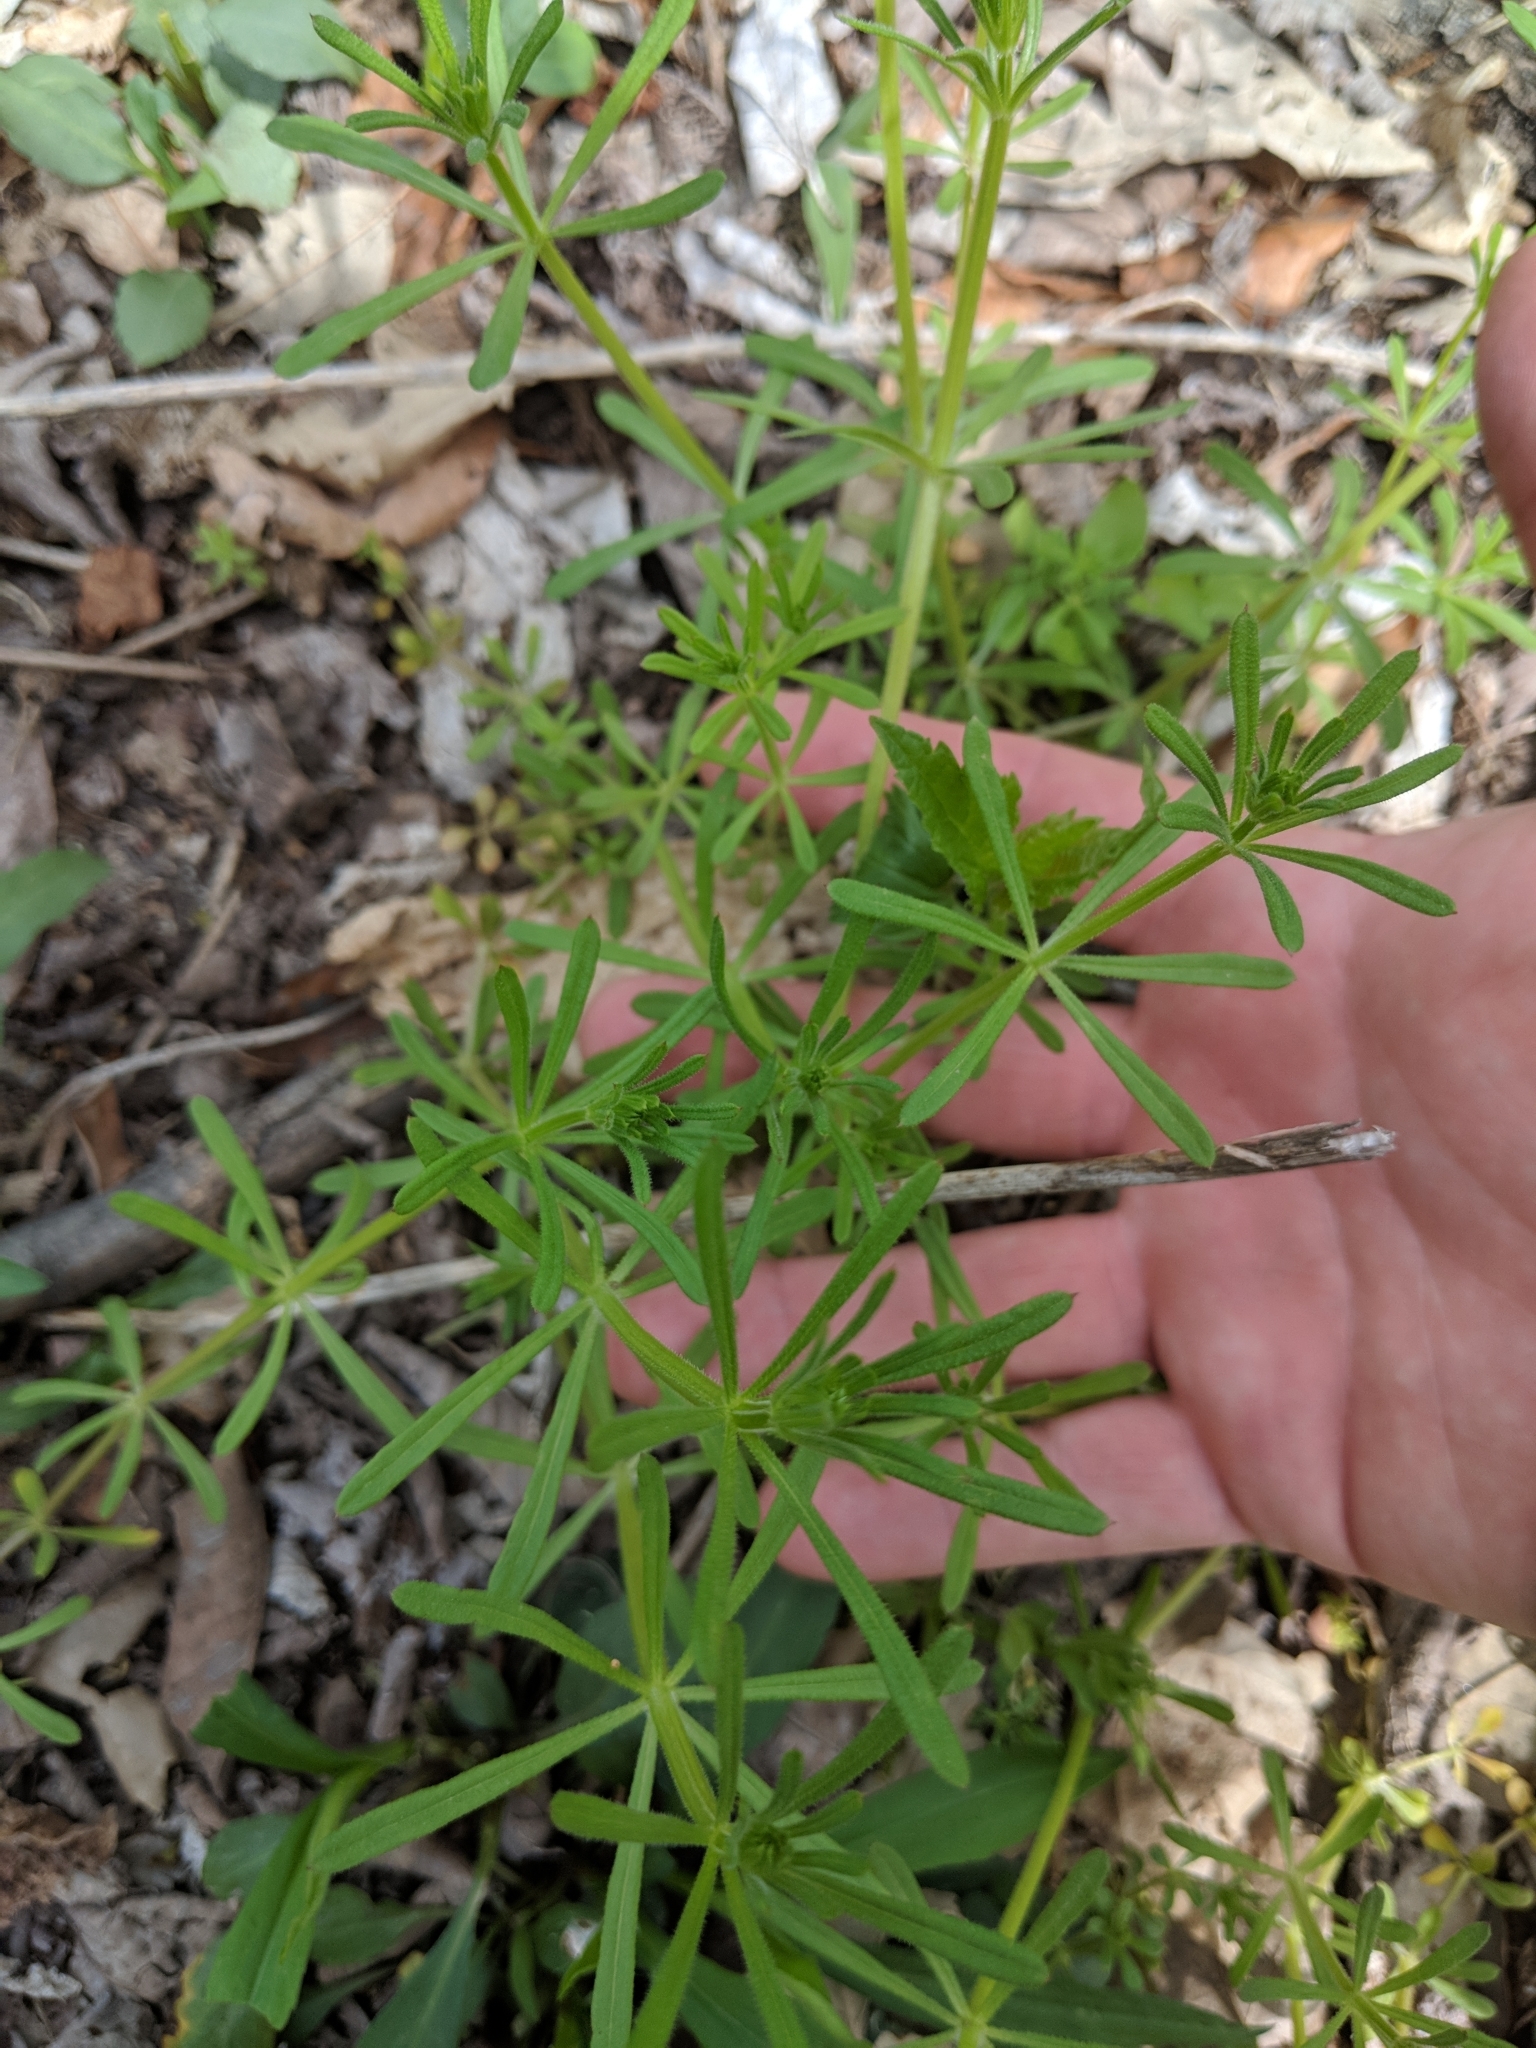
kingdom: Plantae
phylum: Tracheophyta
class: Magnoliopsida
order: Gentianales
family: Rubiaceae
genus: Galium
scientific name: Galium aparine
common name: Cleavers
